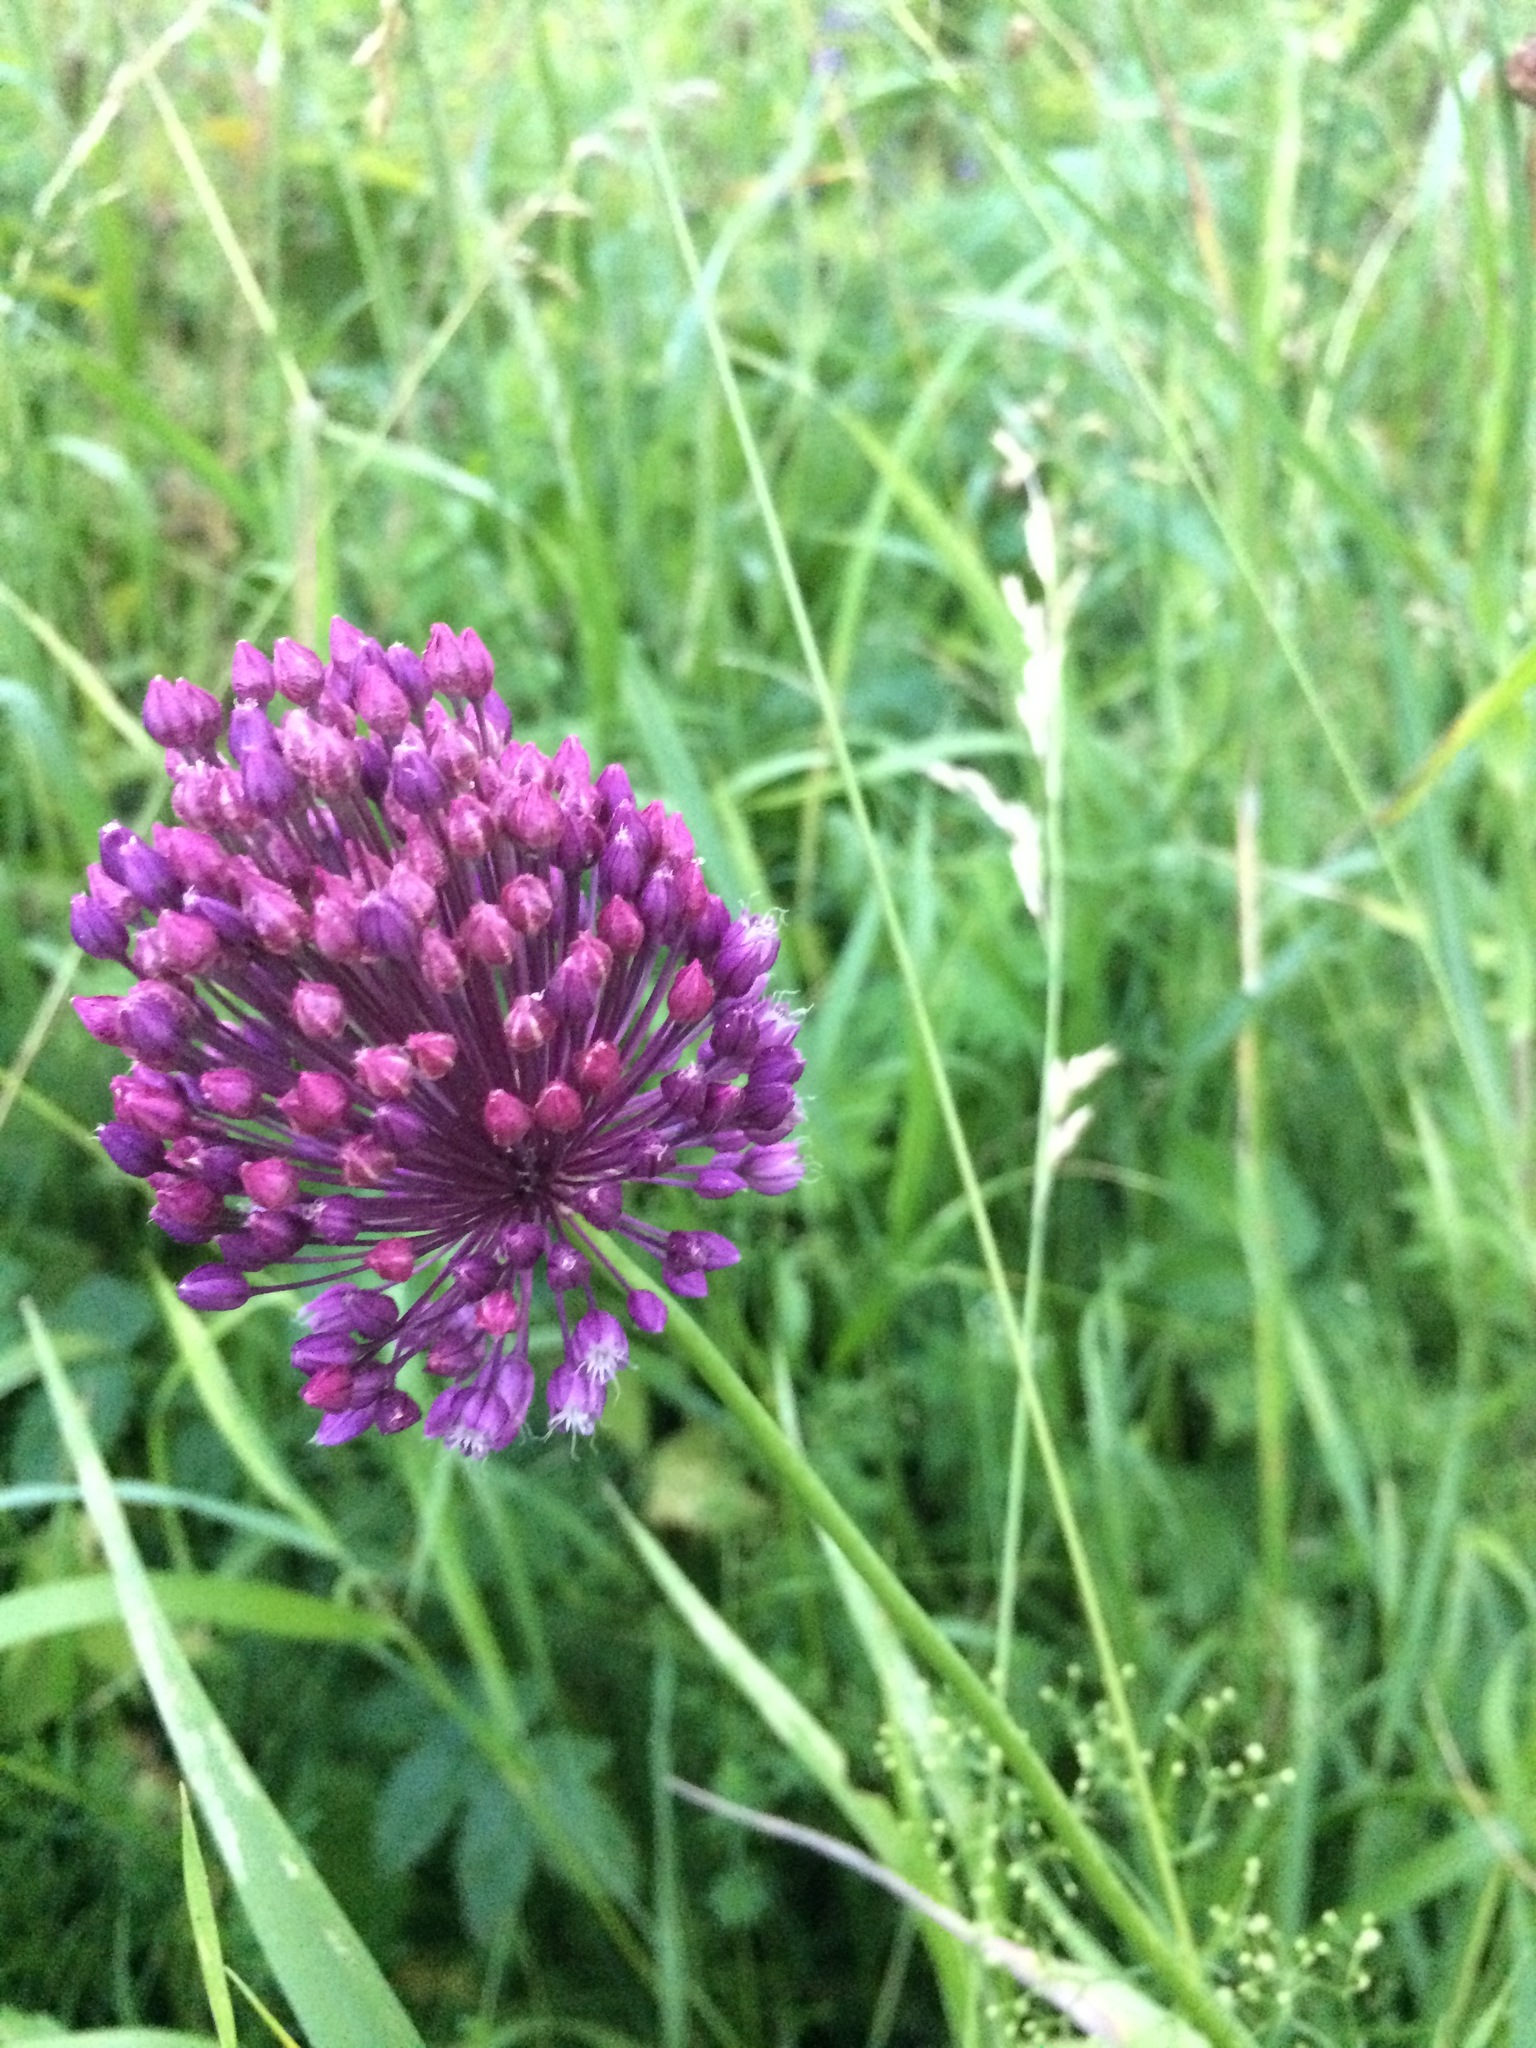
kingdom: Plantae
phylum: Tracheophyta
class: Liliopsida
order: Asparagales
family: Amaryllidaceae
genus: Allium
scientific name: Allium rotundum
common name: Sand leek
